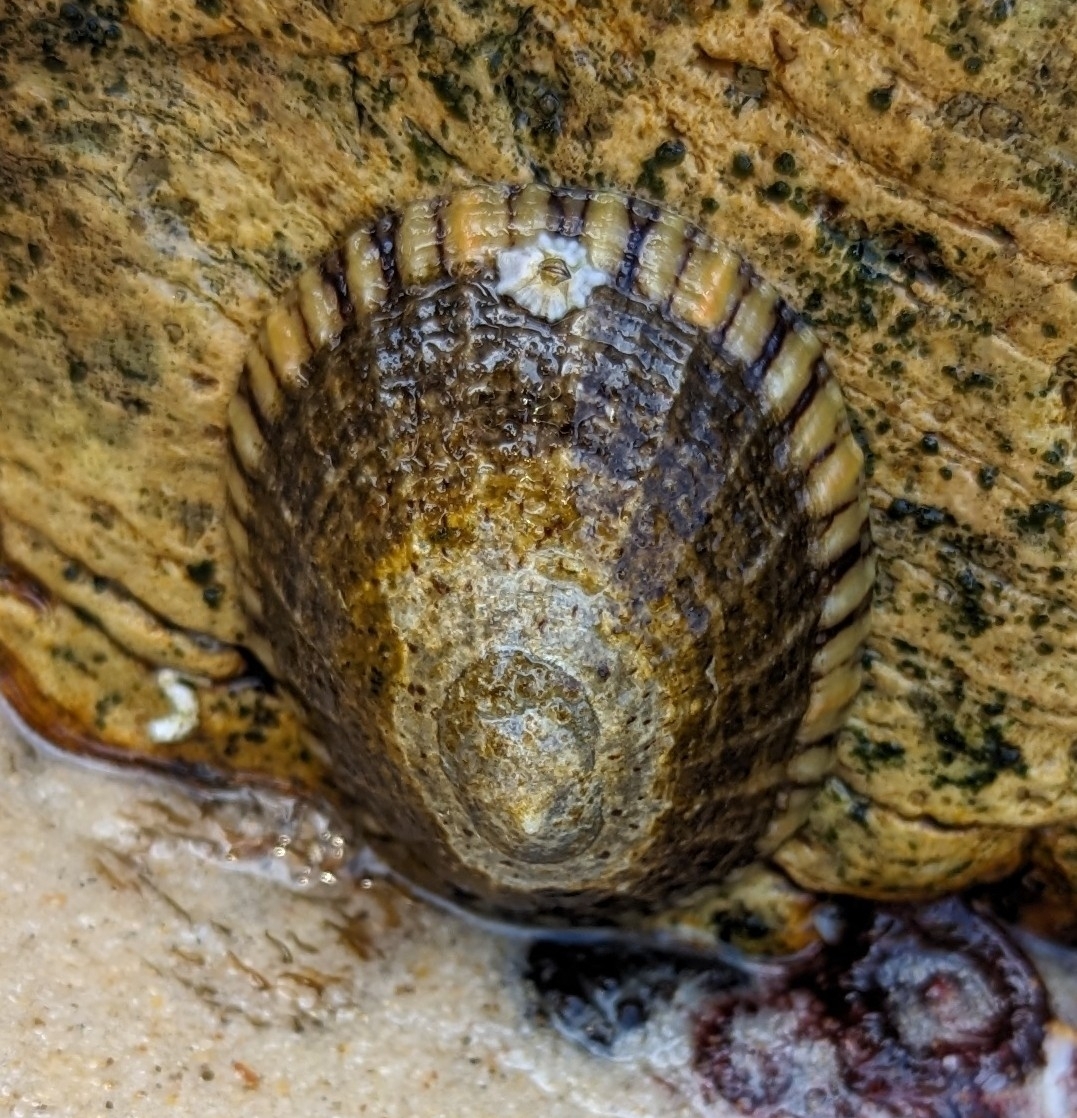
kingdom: Animalia
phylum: Mollusca
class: Gastropoda
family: Nacellidae
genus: Cellana
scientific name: Cellana tramoserica
